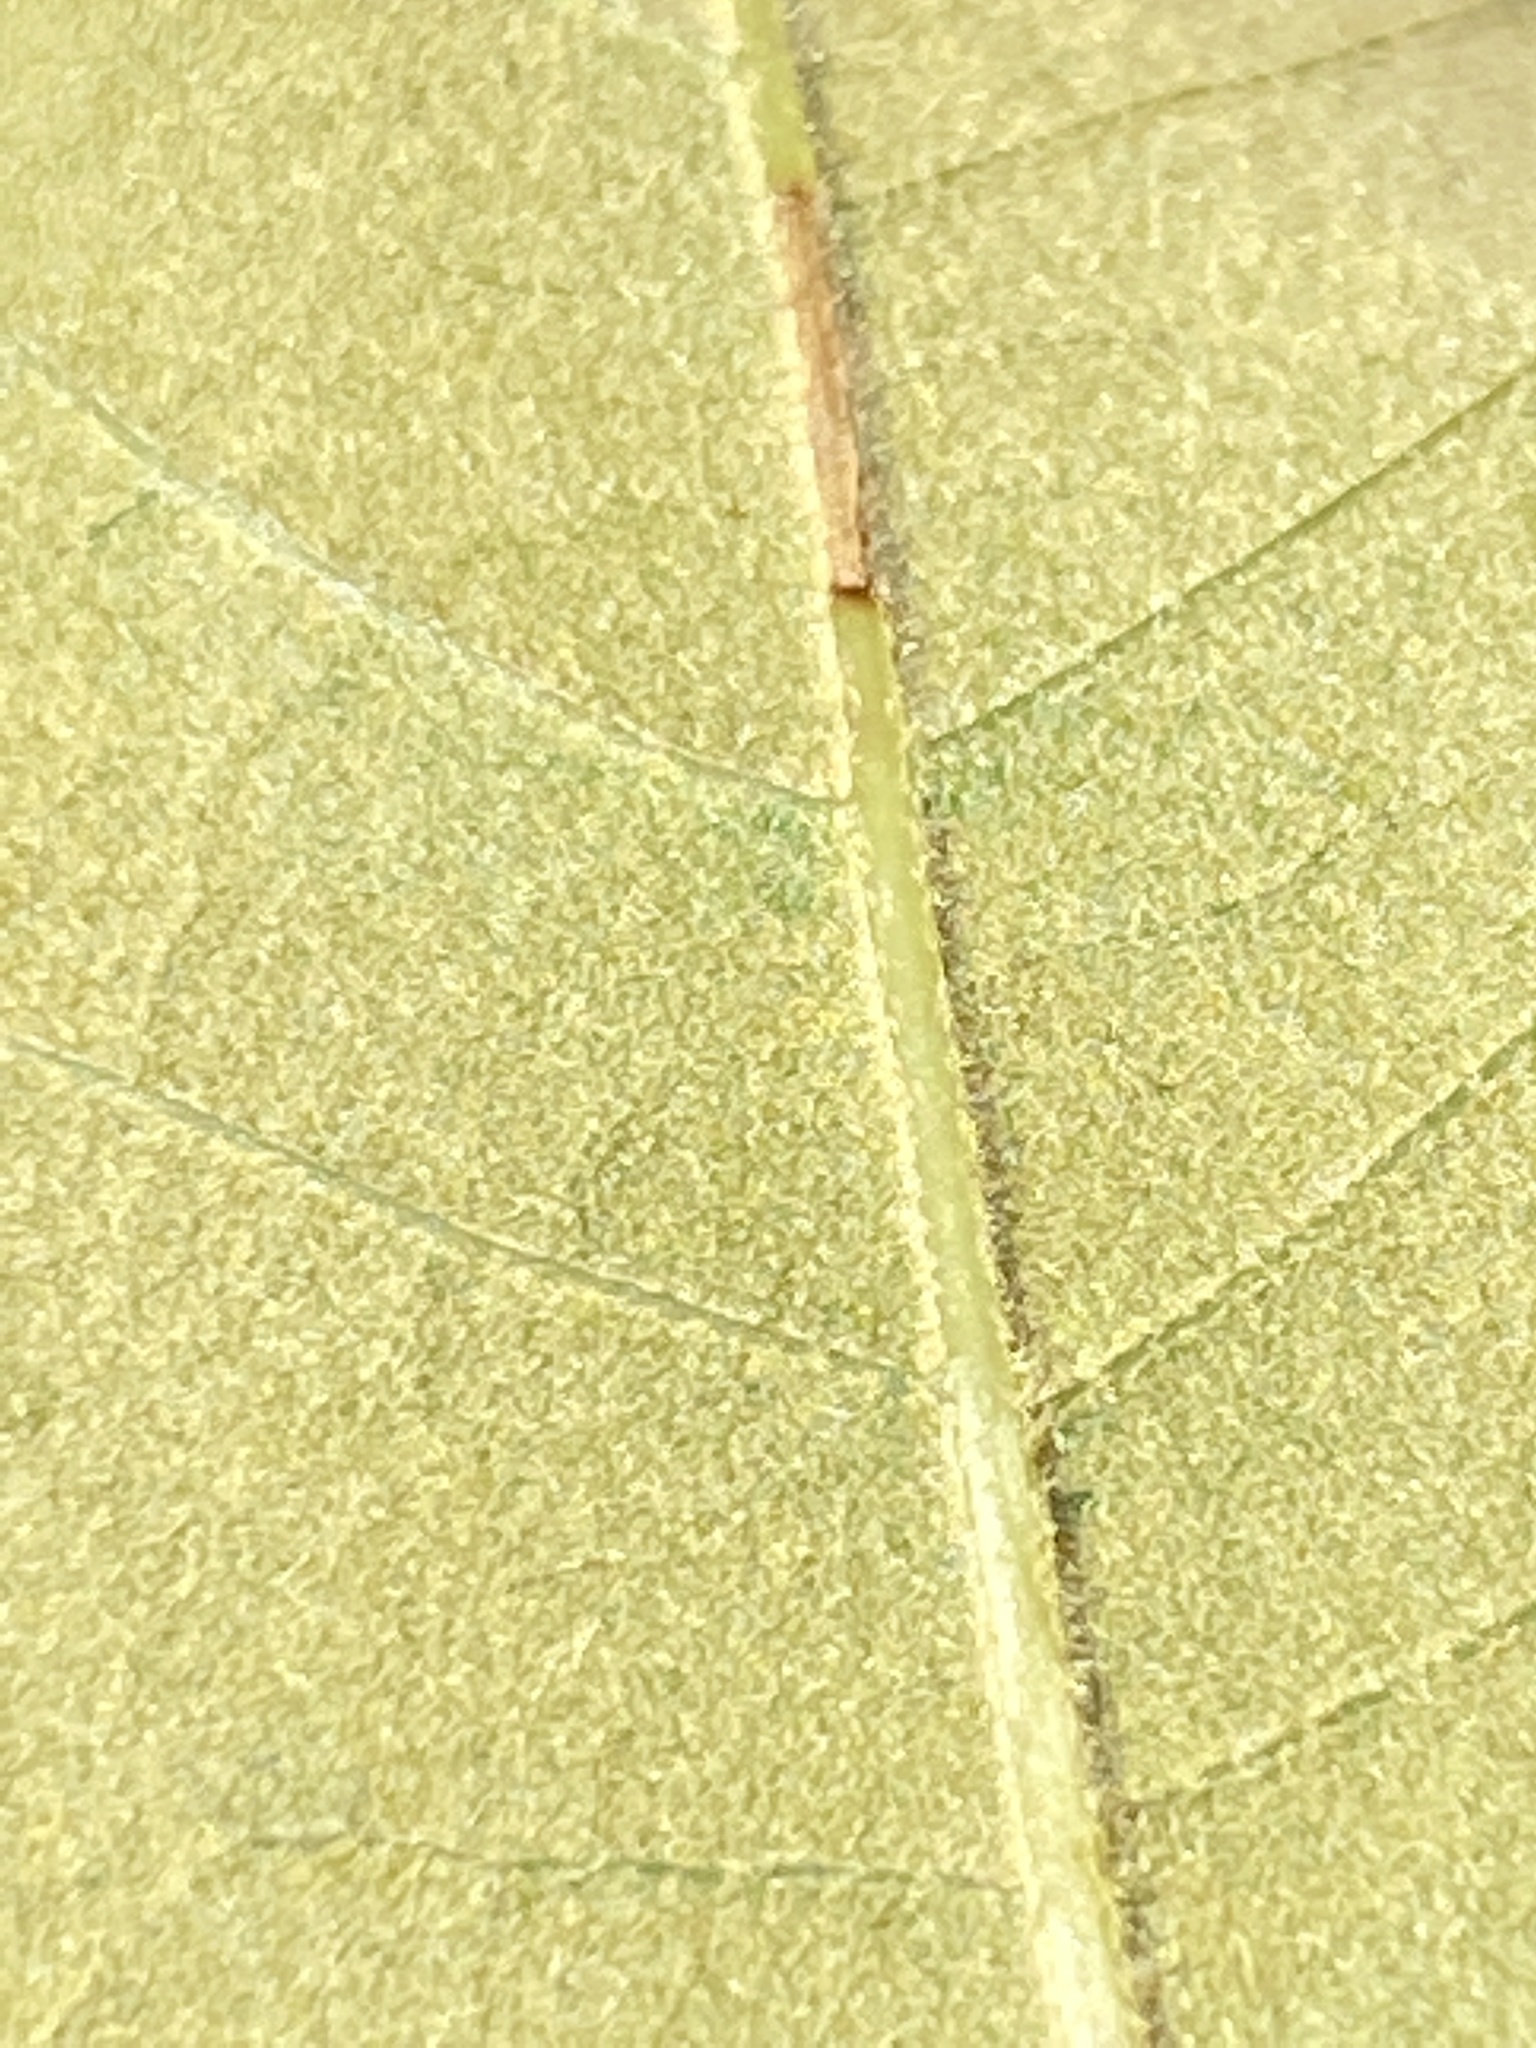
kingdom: Plantae
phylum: Tracheophyta
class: Magnoliopsida
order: Fagales
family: Fagaceae
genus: Quercus
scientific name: Quercus falcata
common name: Southern red oak
